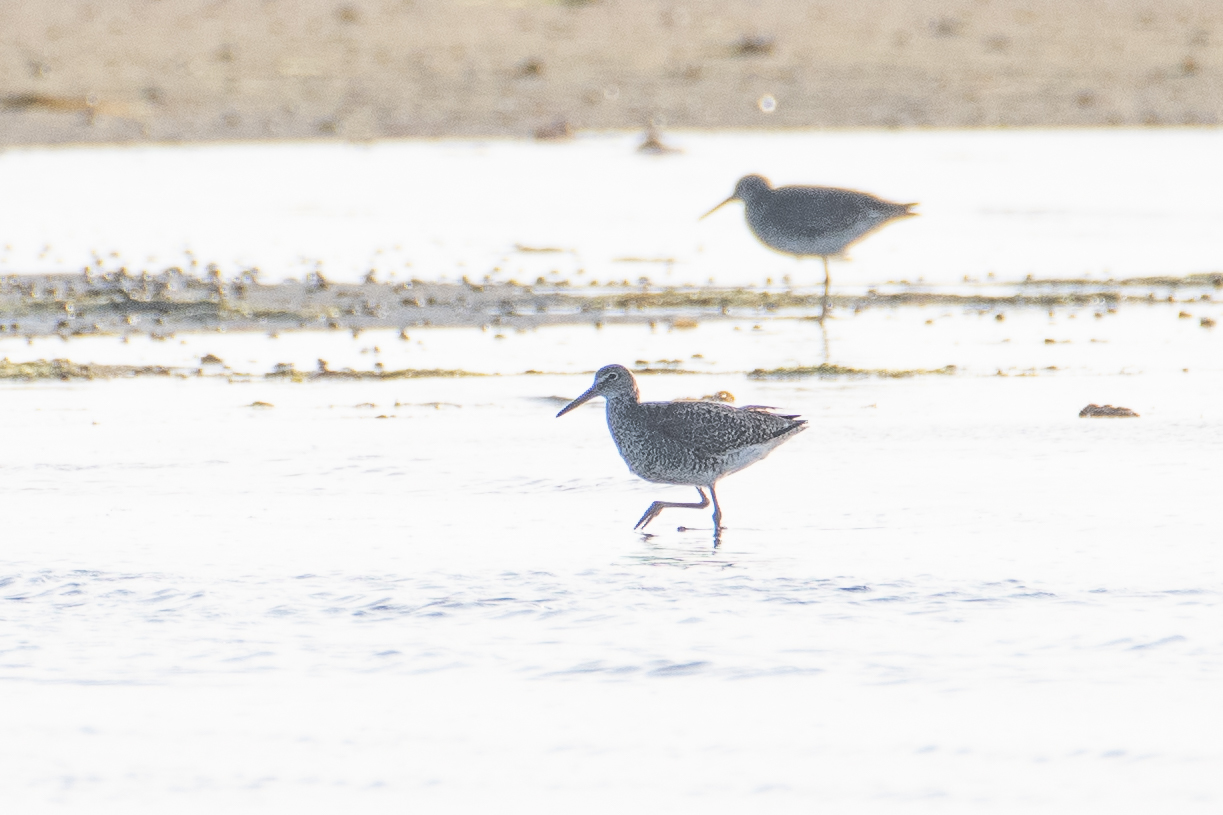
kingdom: Animalia
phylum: Chordata
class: Aves
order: Charadriiformes
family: Scolopacidae
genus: Tringa
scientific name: Tringa semipalmata
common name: Willet
